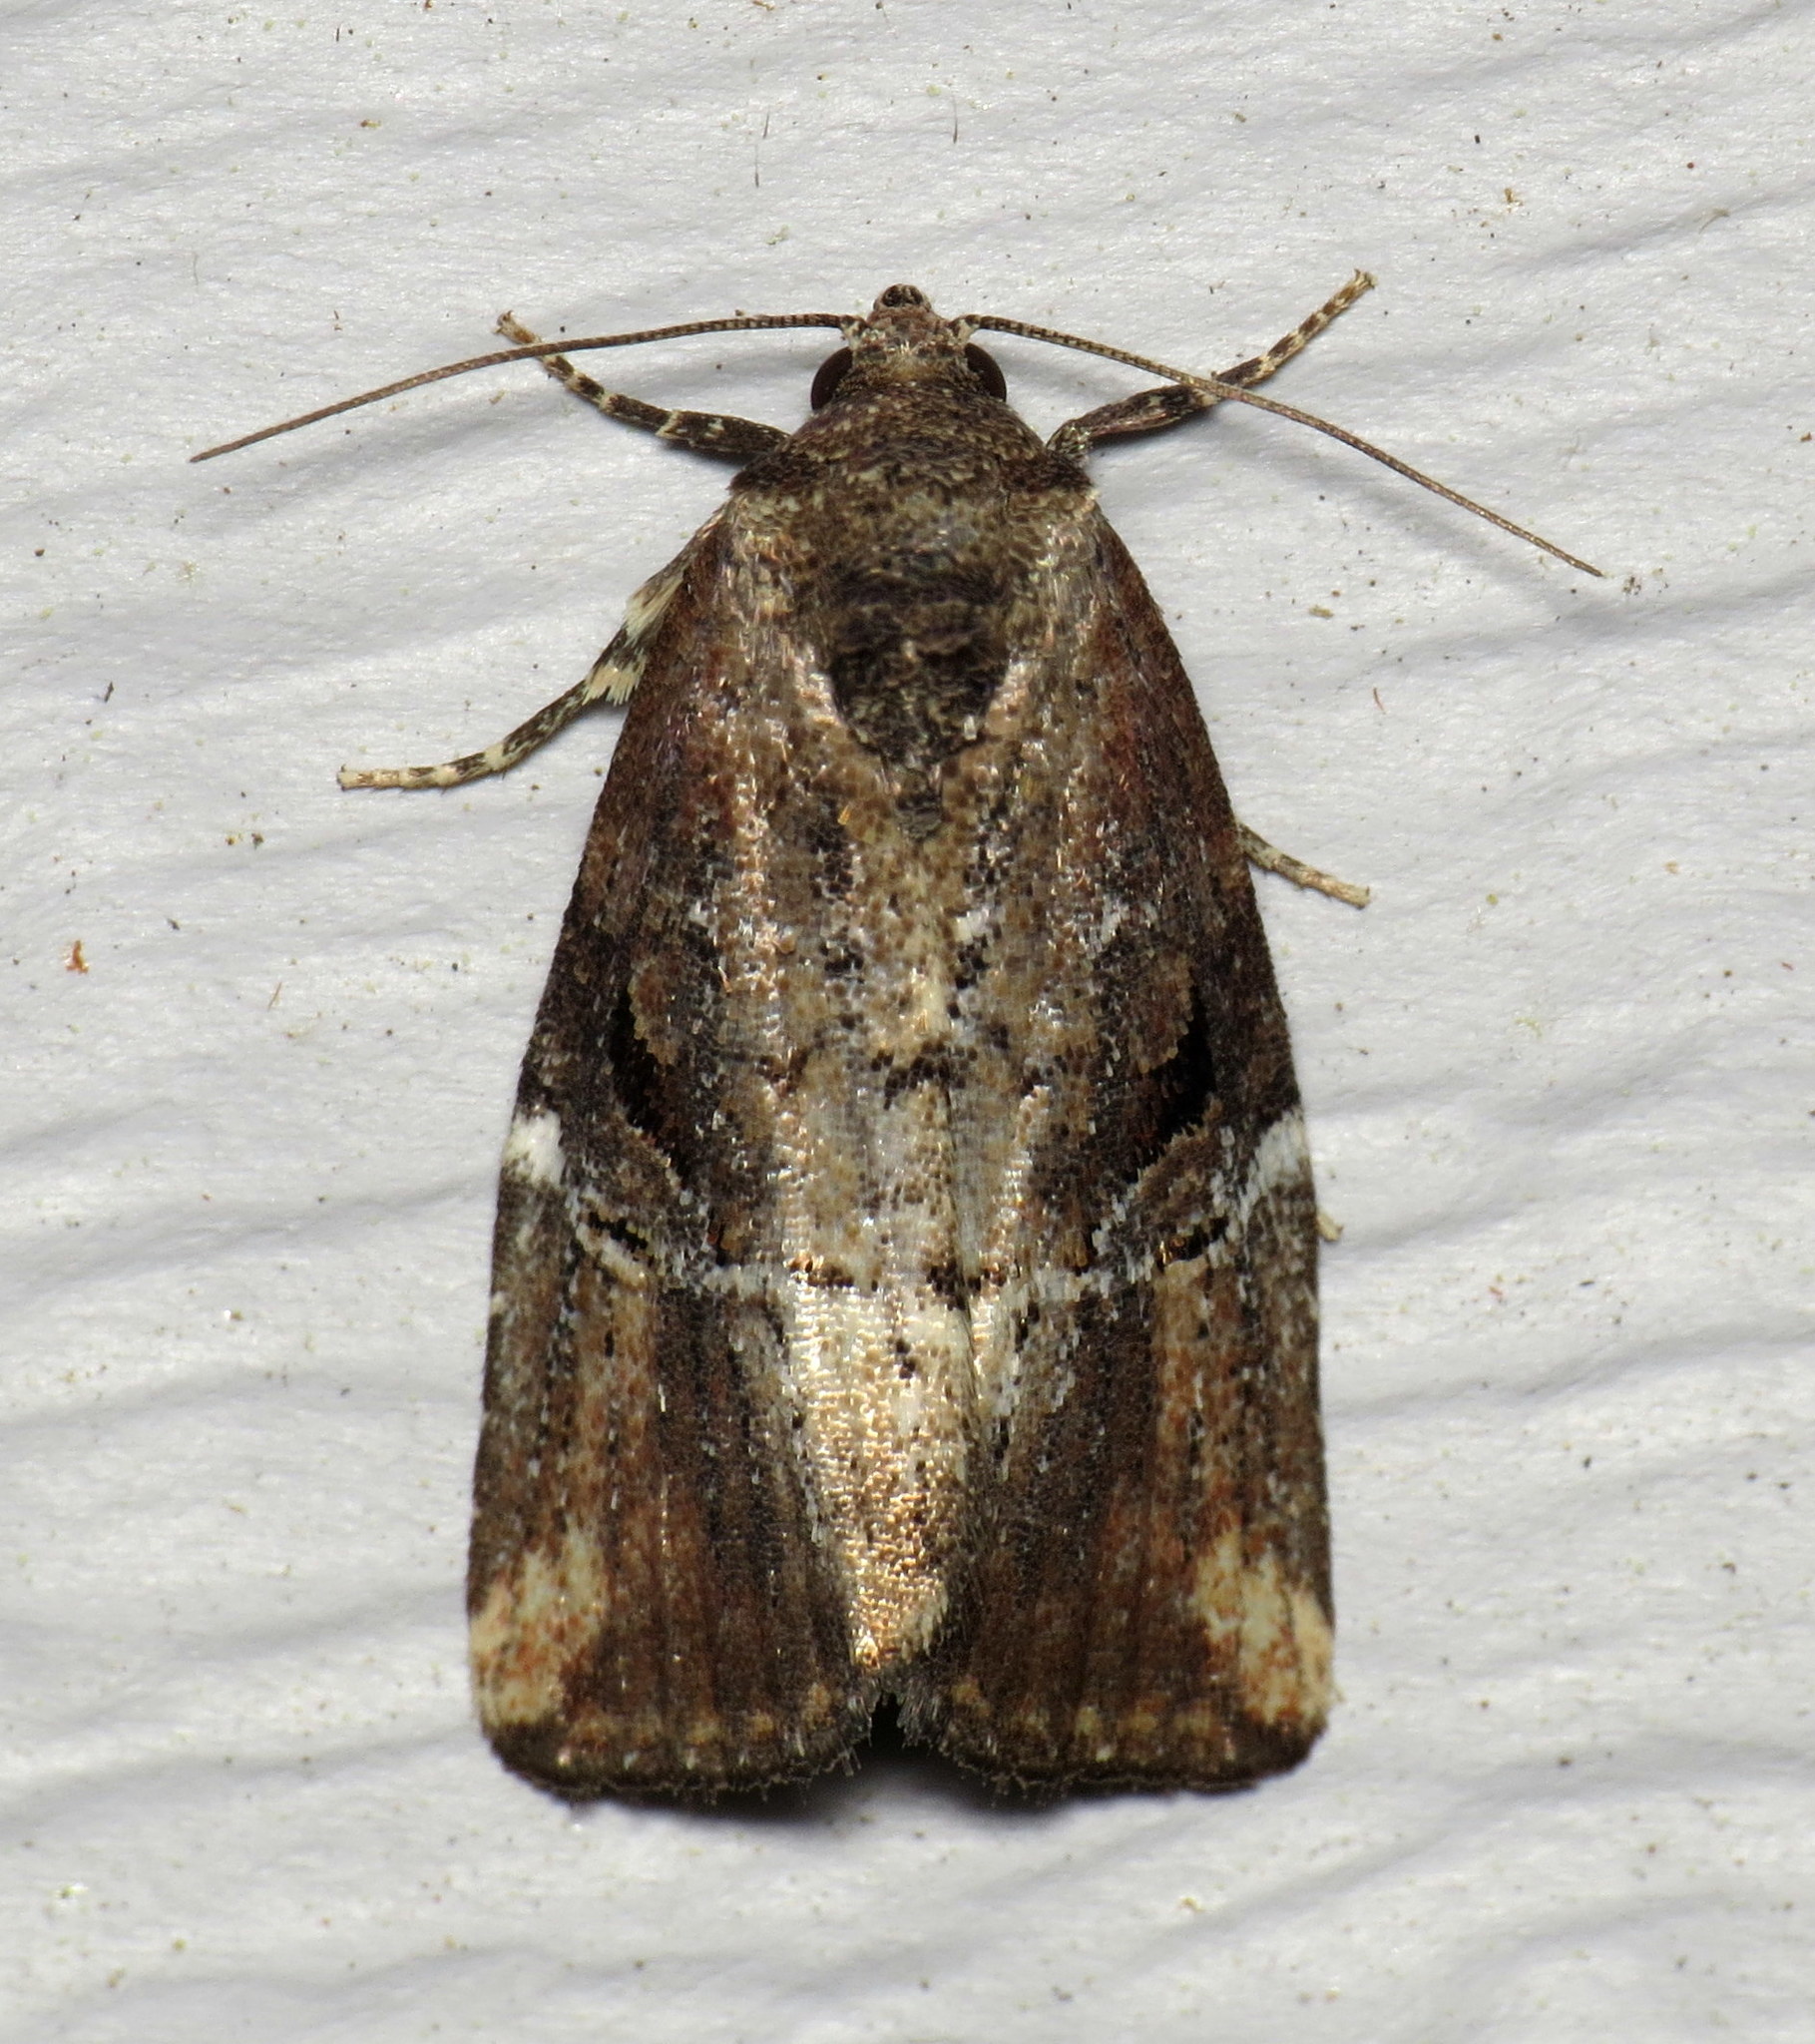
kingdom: Animalia
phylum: Arthropoda
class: Insecta
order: Lepidoptera
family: Noctuidae
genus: Elaphria
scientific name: Elaphria versicolor
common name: Fir harlequin
